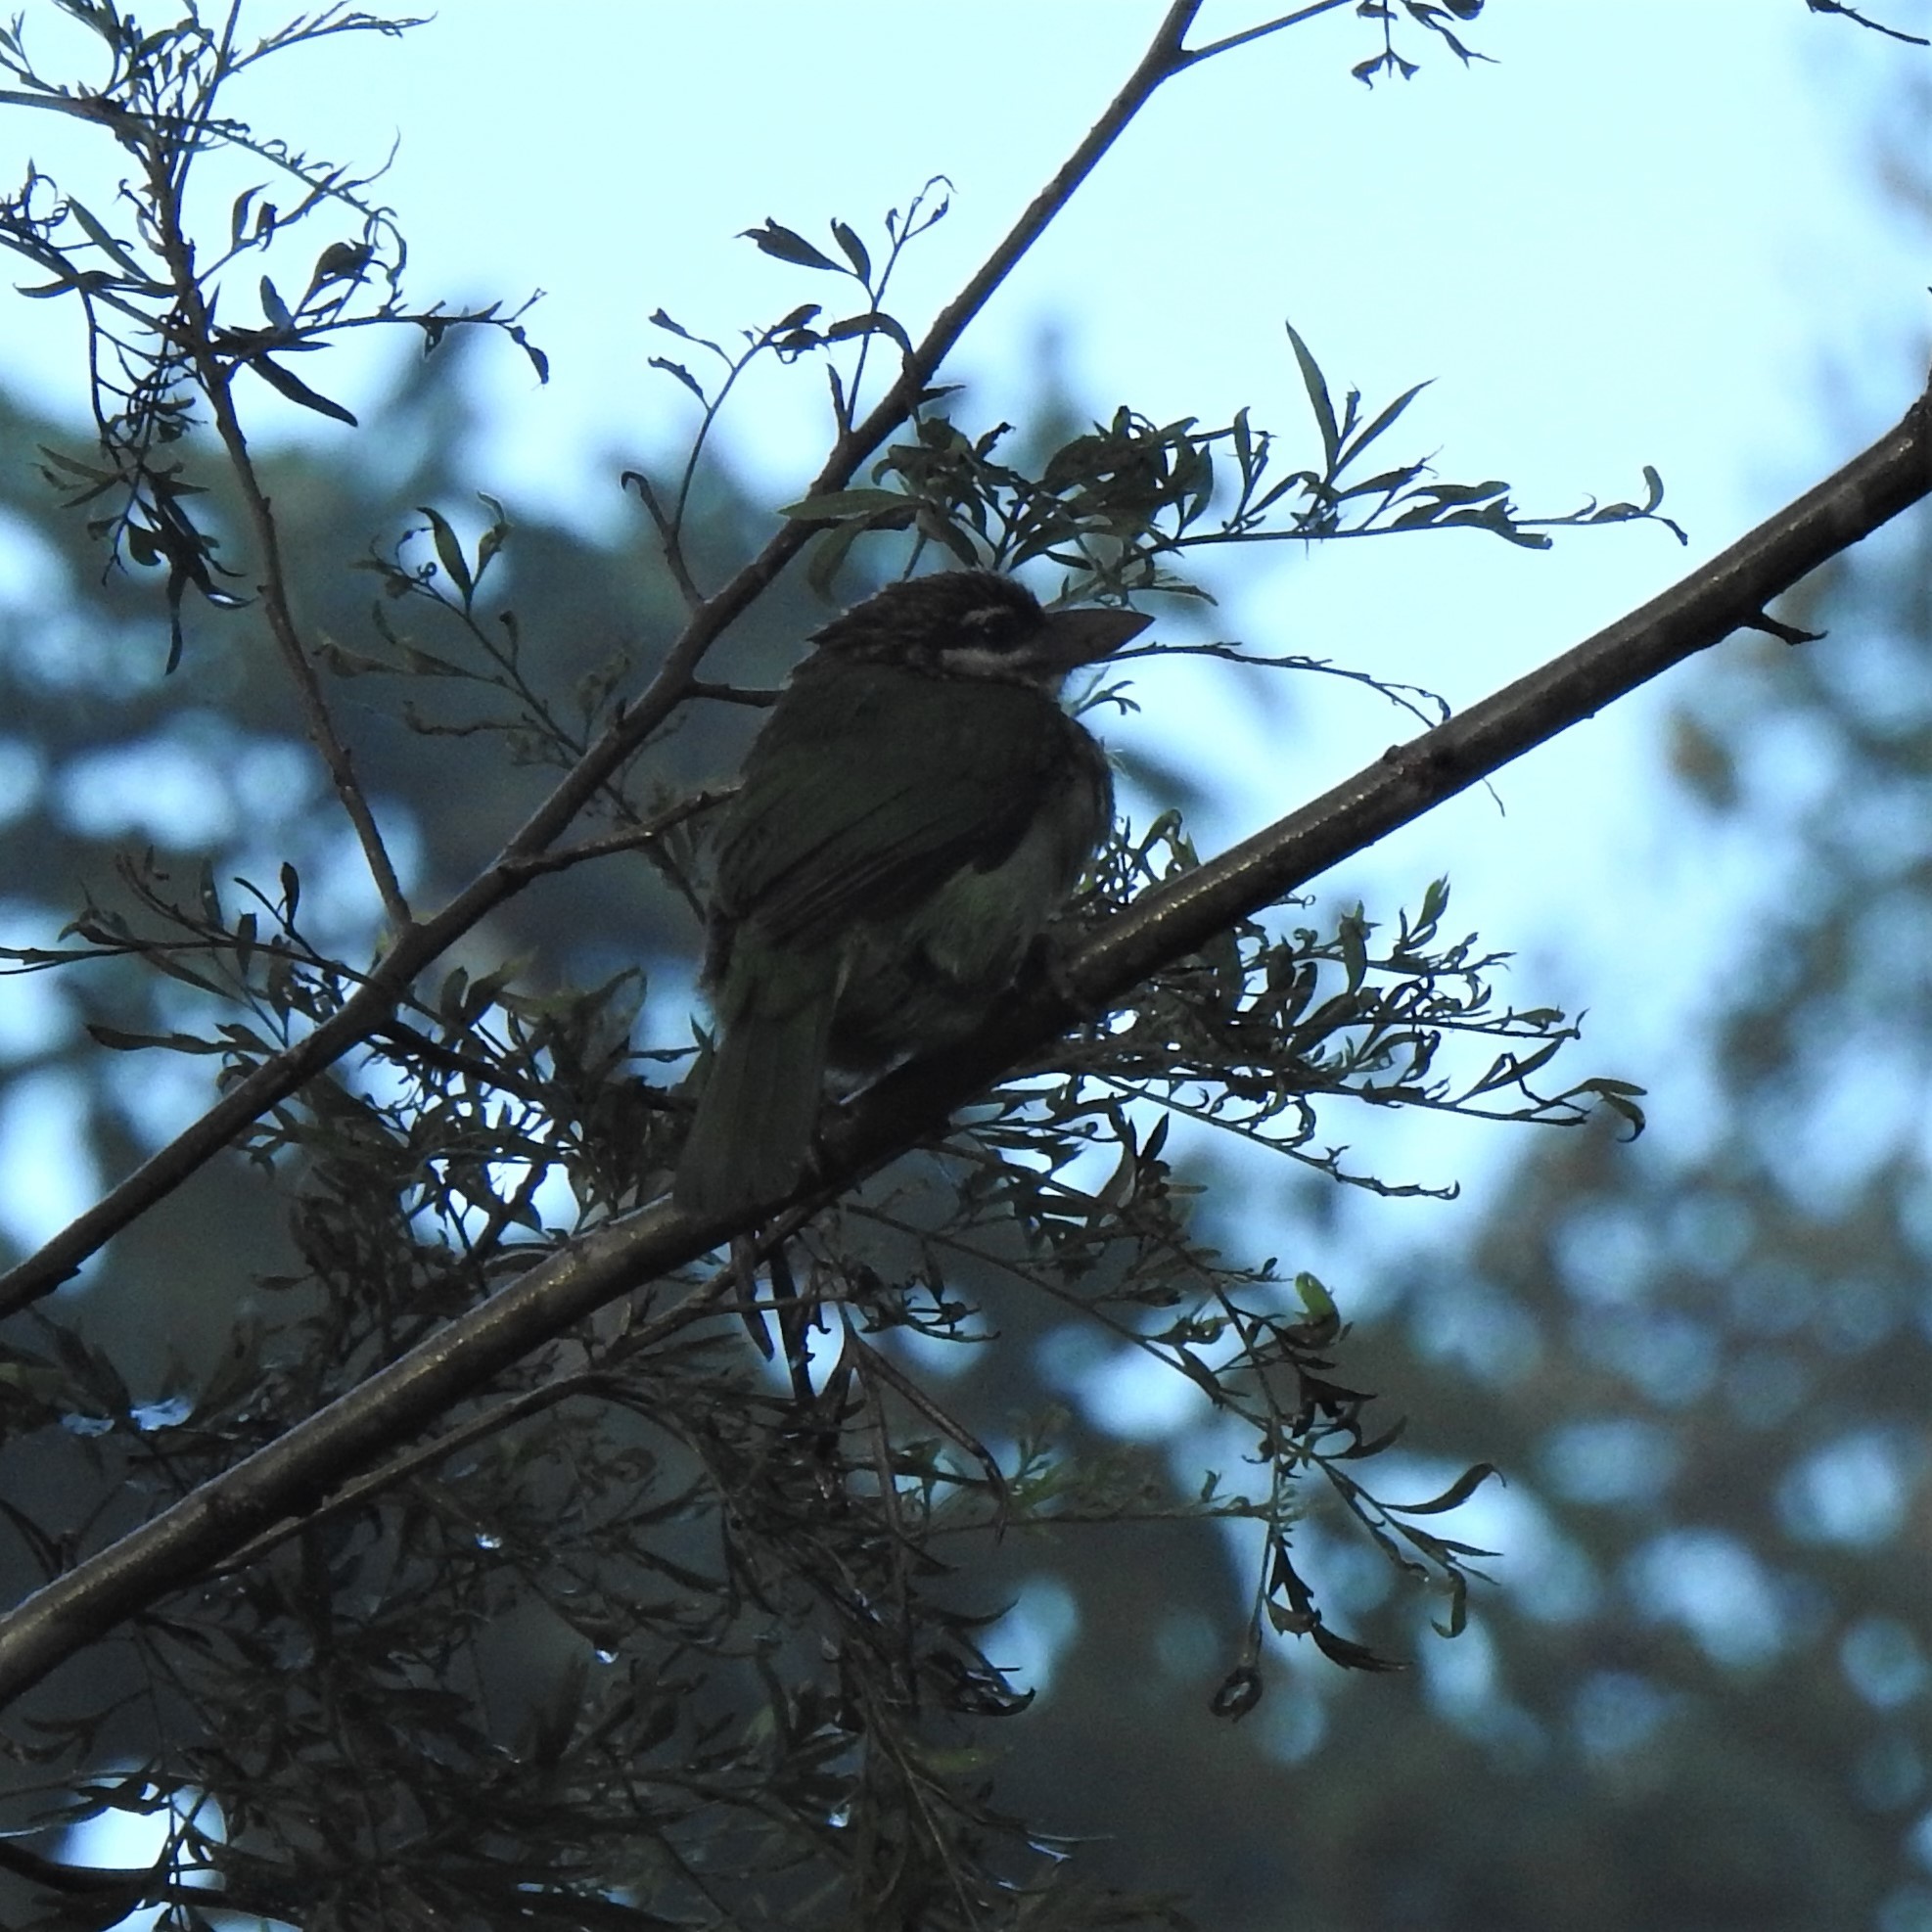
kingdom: Animalia
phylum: Chordata
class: Aves
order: Piciformes
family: Megalaimidae
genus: Psilopogon
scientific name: Psilopogon viridis
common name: White-cheeked barbet
